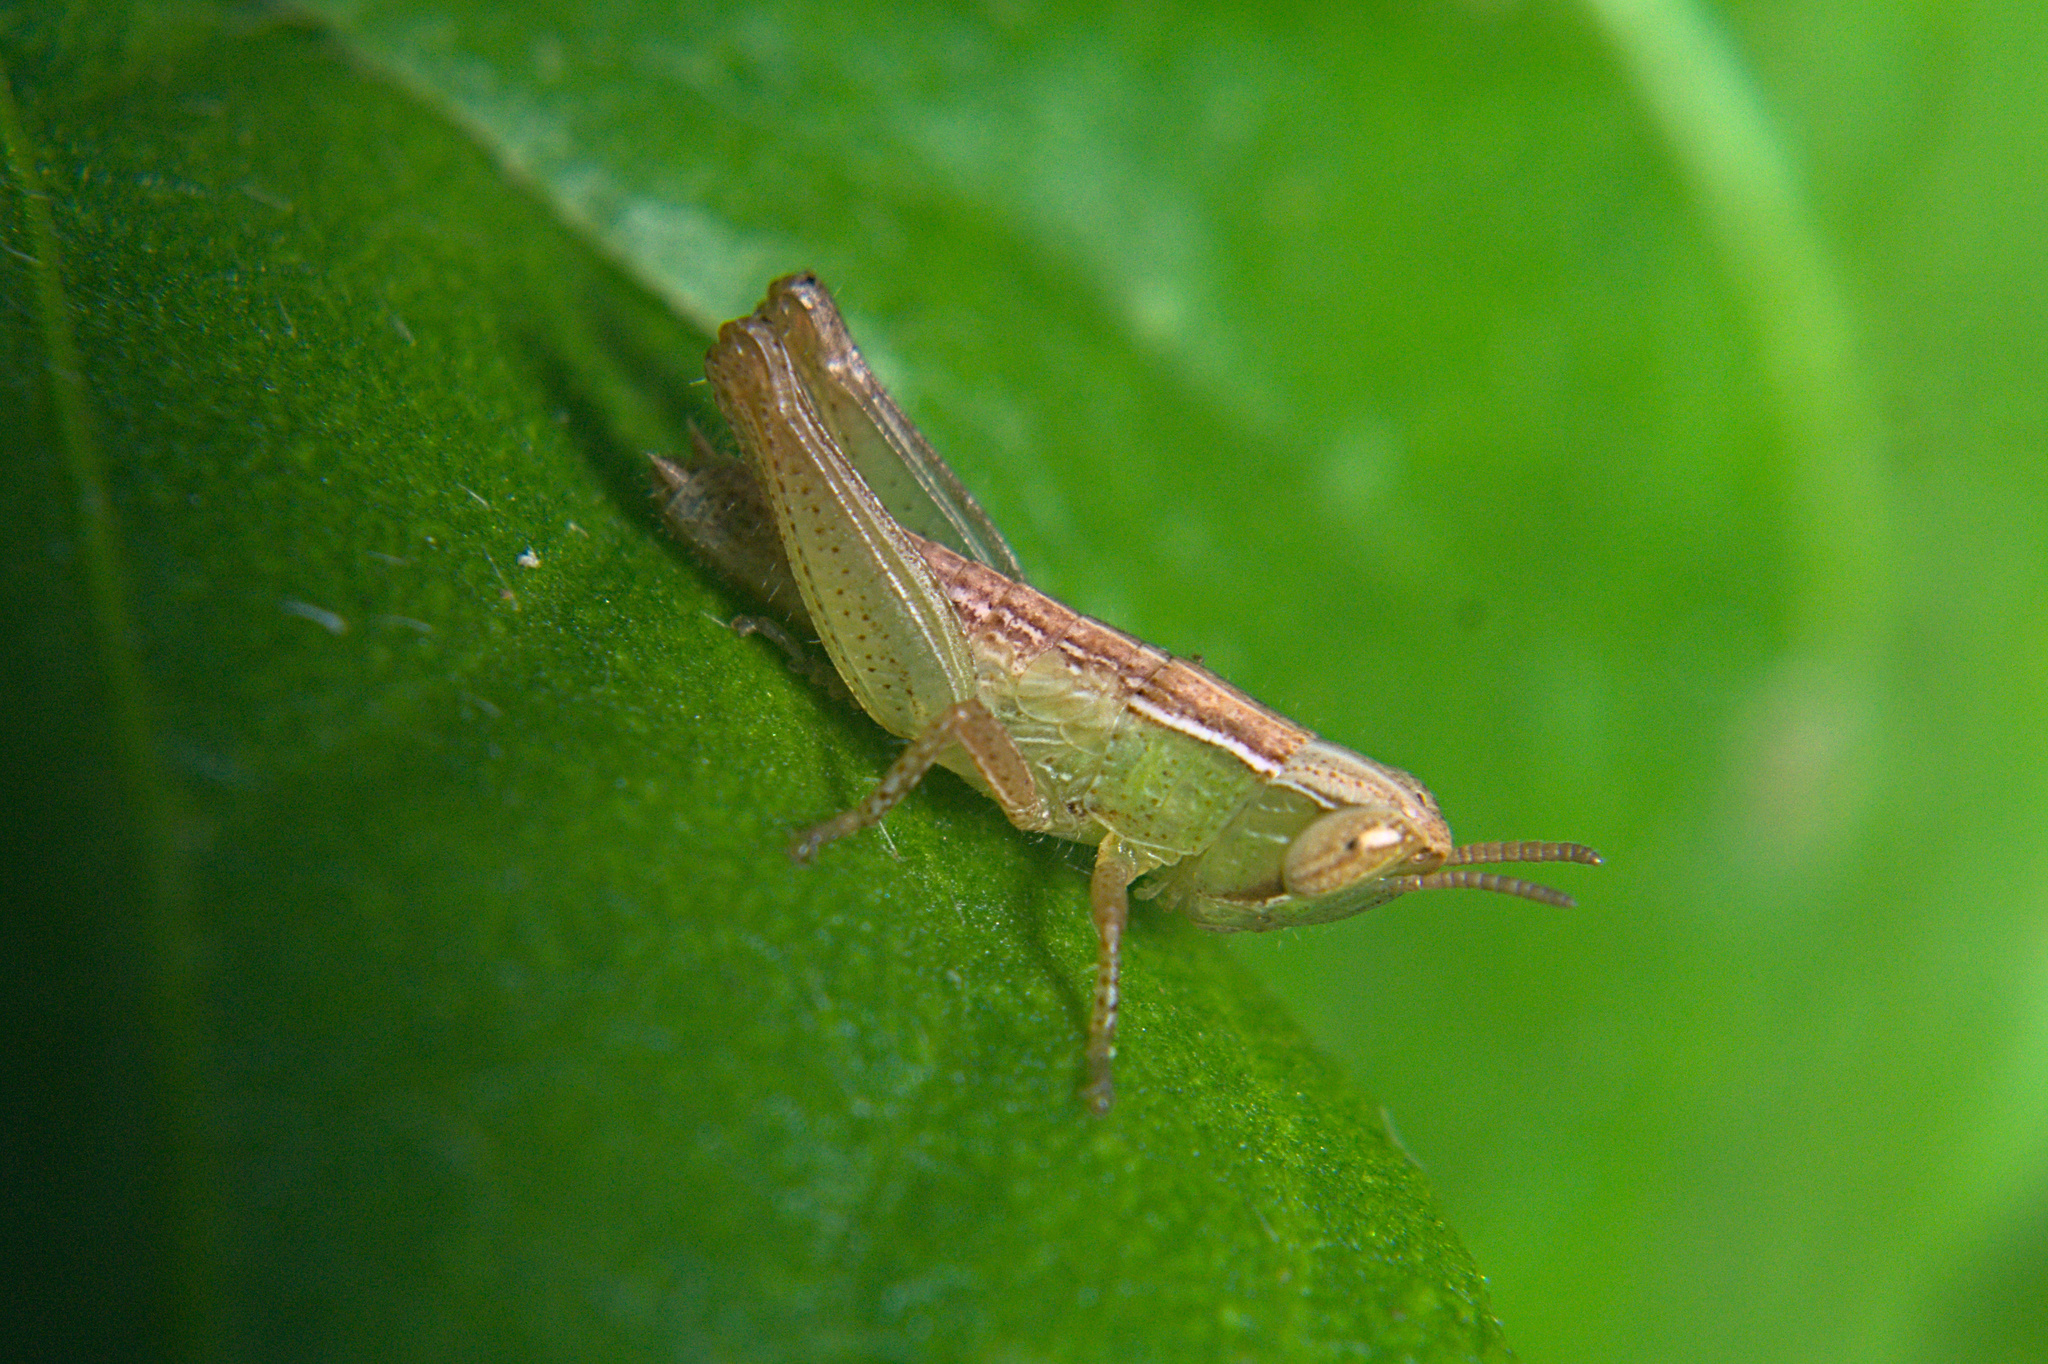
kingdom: Animalia
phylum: Arthropoda
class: Insecta
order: Orthoptera
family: Acrididae
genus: Spathosternum
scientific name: Spathosternum prasiniferum
